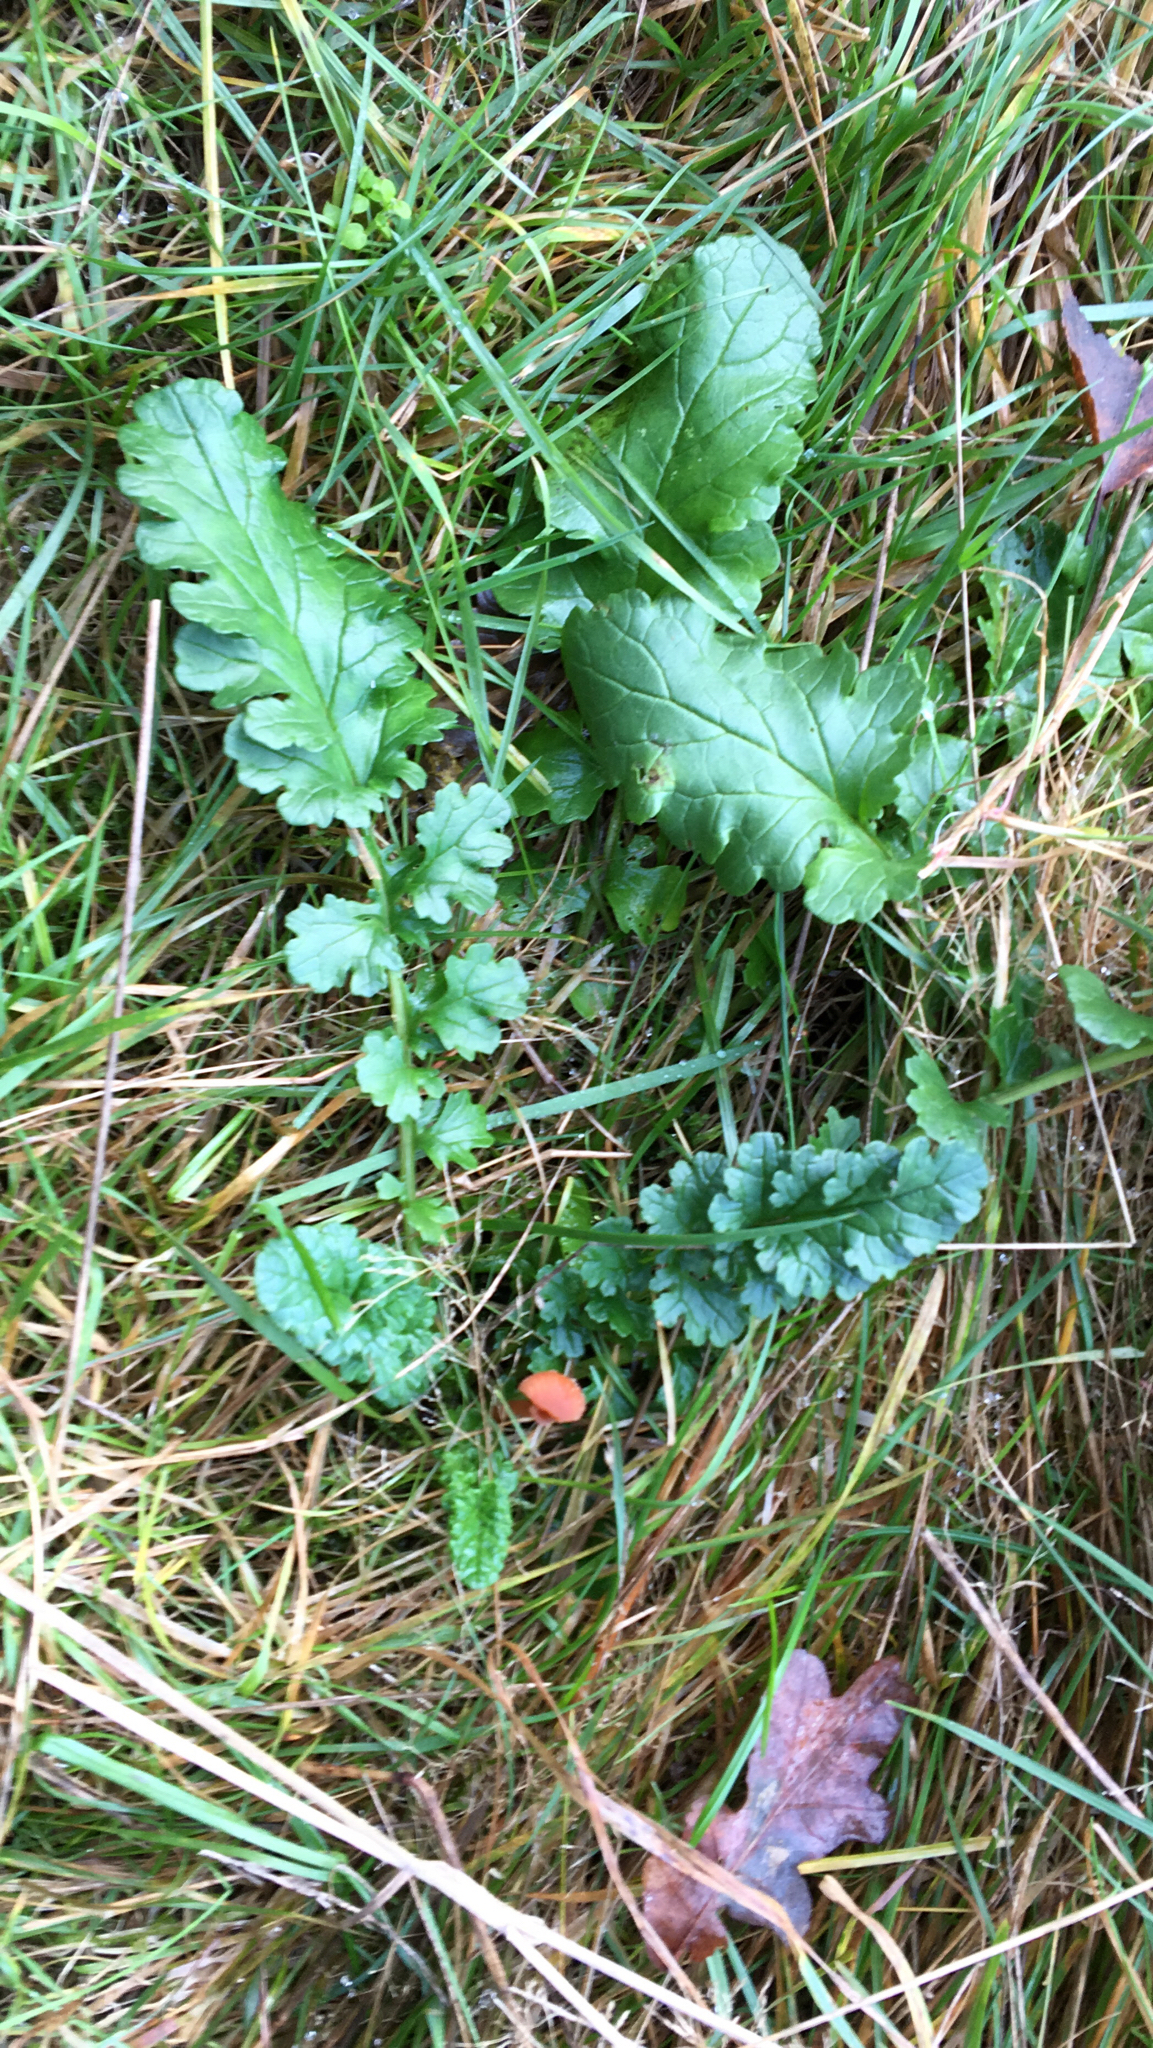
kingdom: Plantae
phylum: Tracheophyta
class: Magnoliopsida
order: Asterales
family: Asteraceae
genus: Jacobaea
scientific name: Jacobaea vulgaris
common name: Stinking willie
